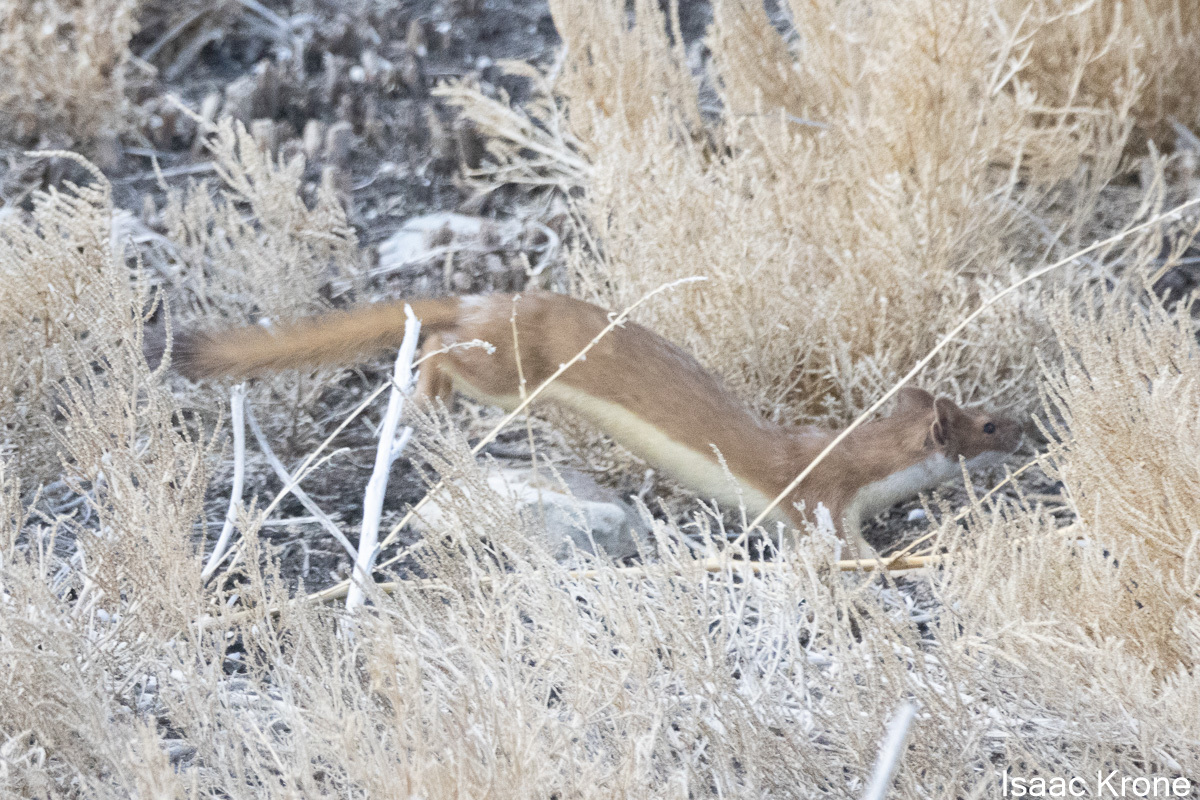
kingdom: Animalia
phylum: Chordata
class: Mammalia
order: Carnivora
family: Mustelidae
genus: Mustela
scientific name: Mustela
